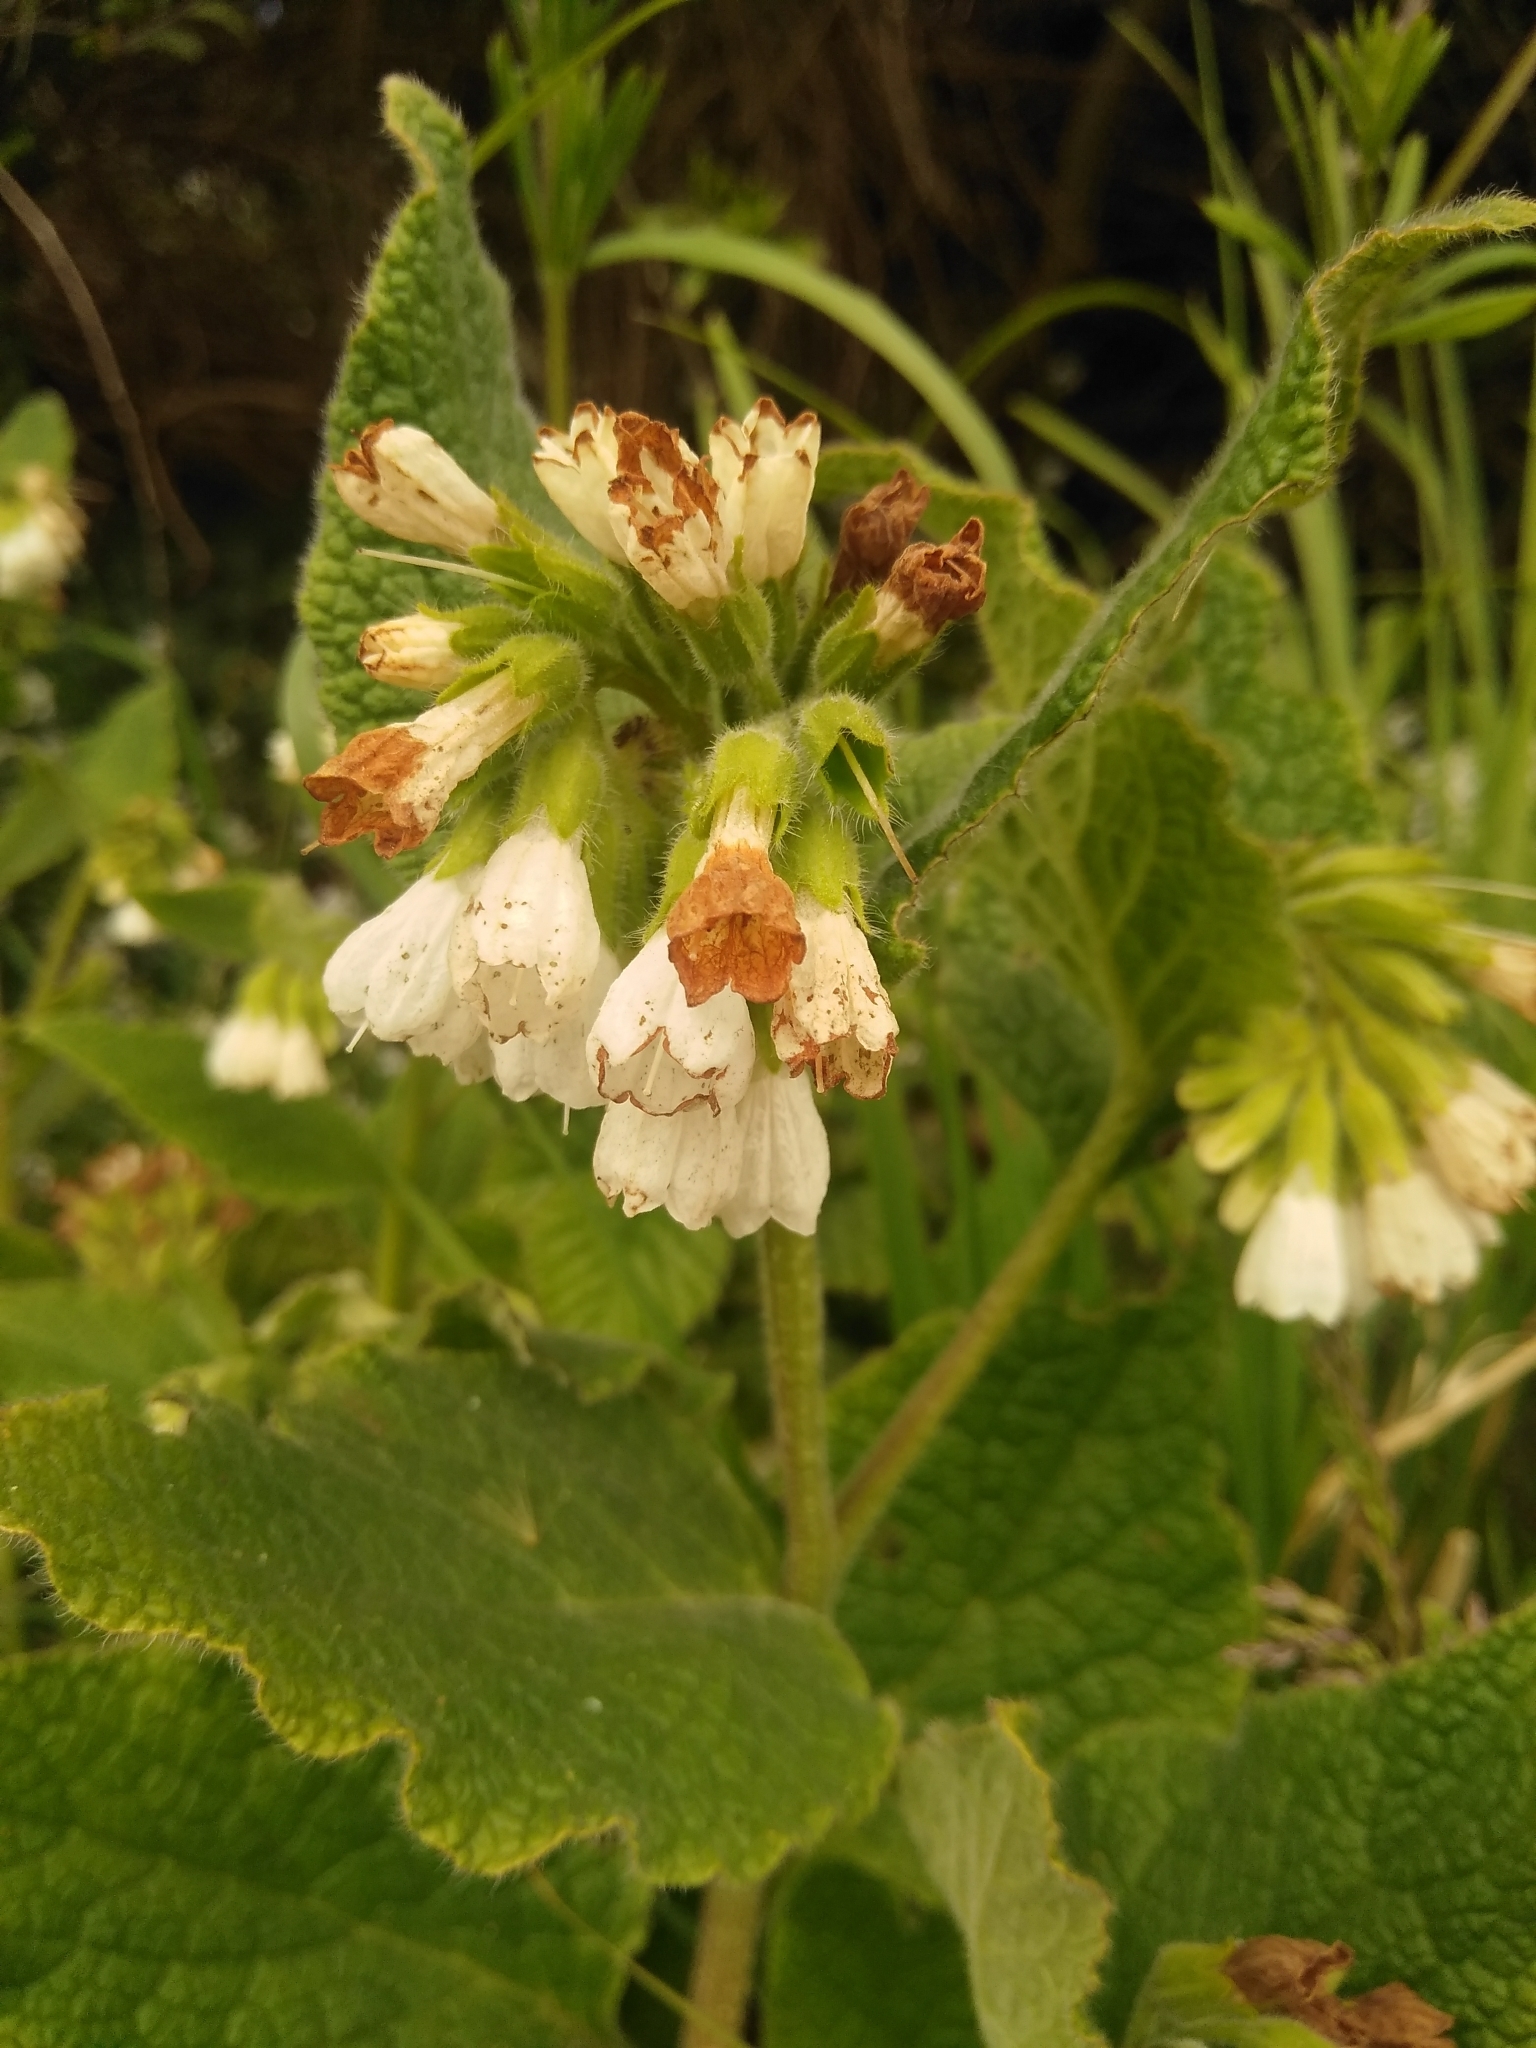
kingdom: Plantae
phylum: Tracheophyta
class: Magnoliopsida
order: Boraginales
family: Boraginaceae
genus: Symphytum
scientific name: Symphytum orientale
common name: White comfrey
